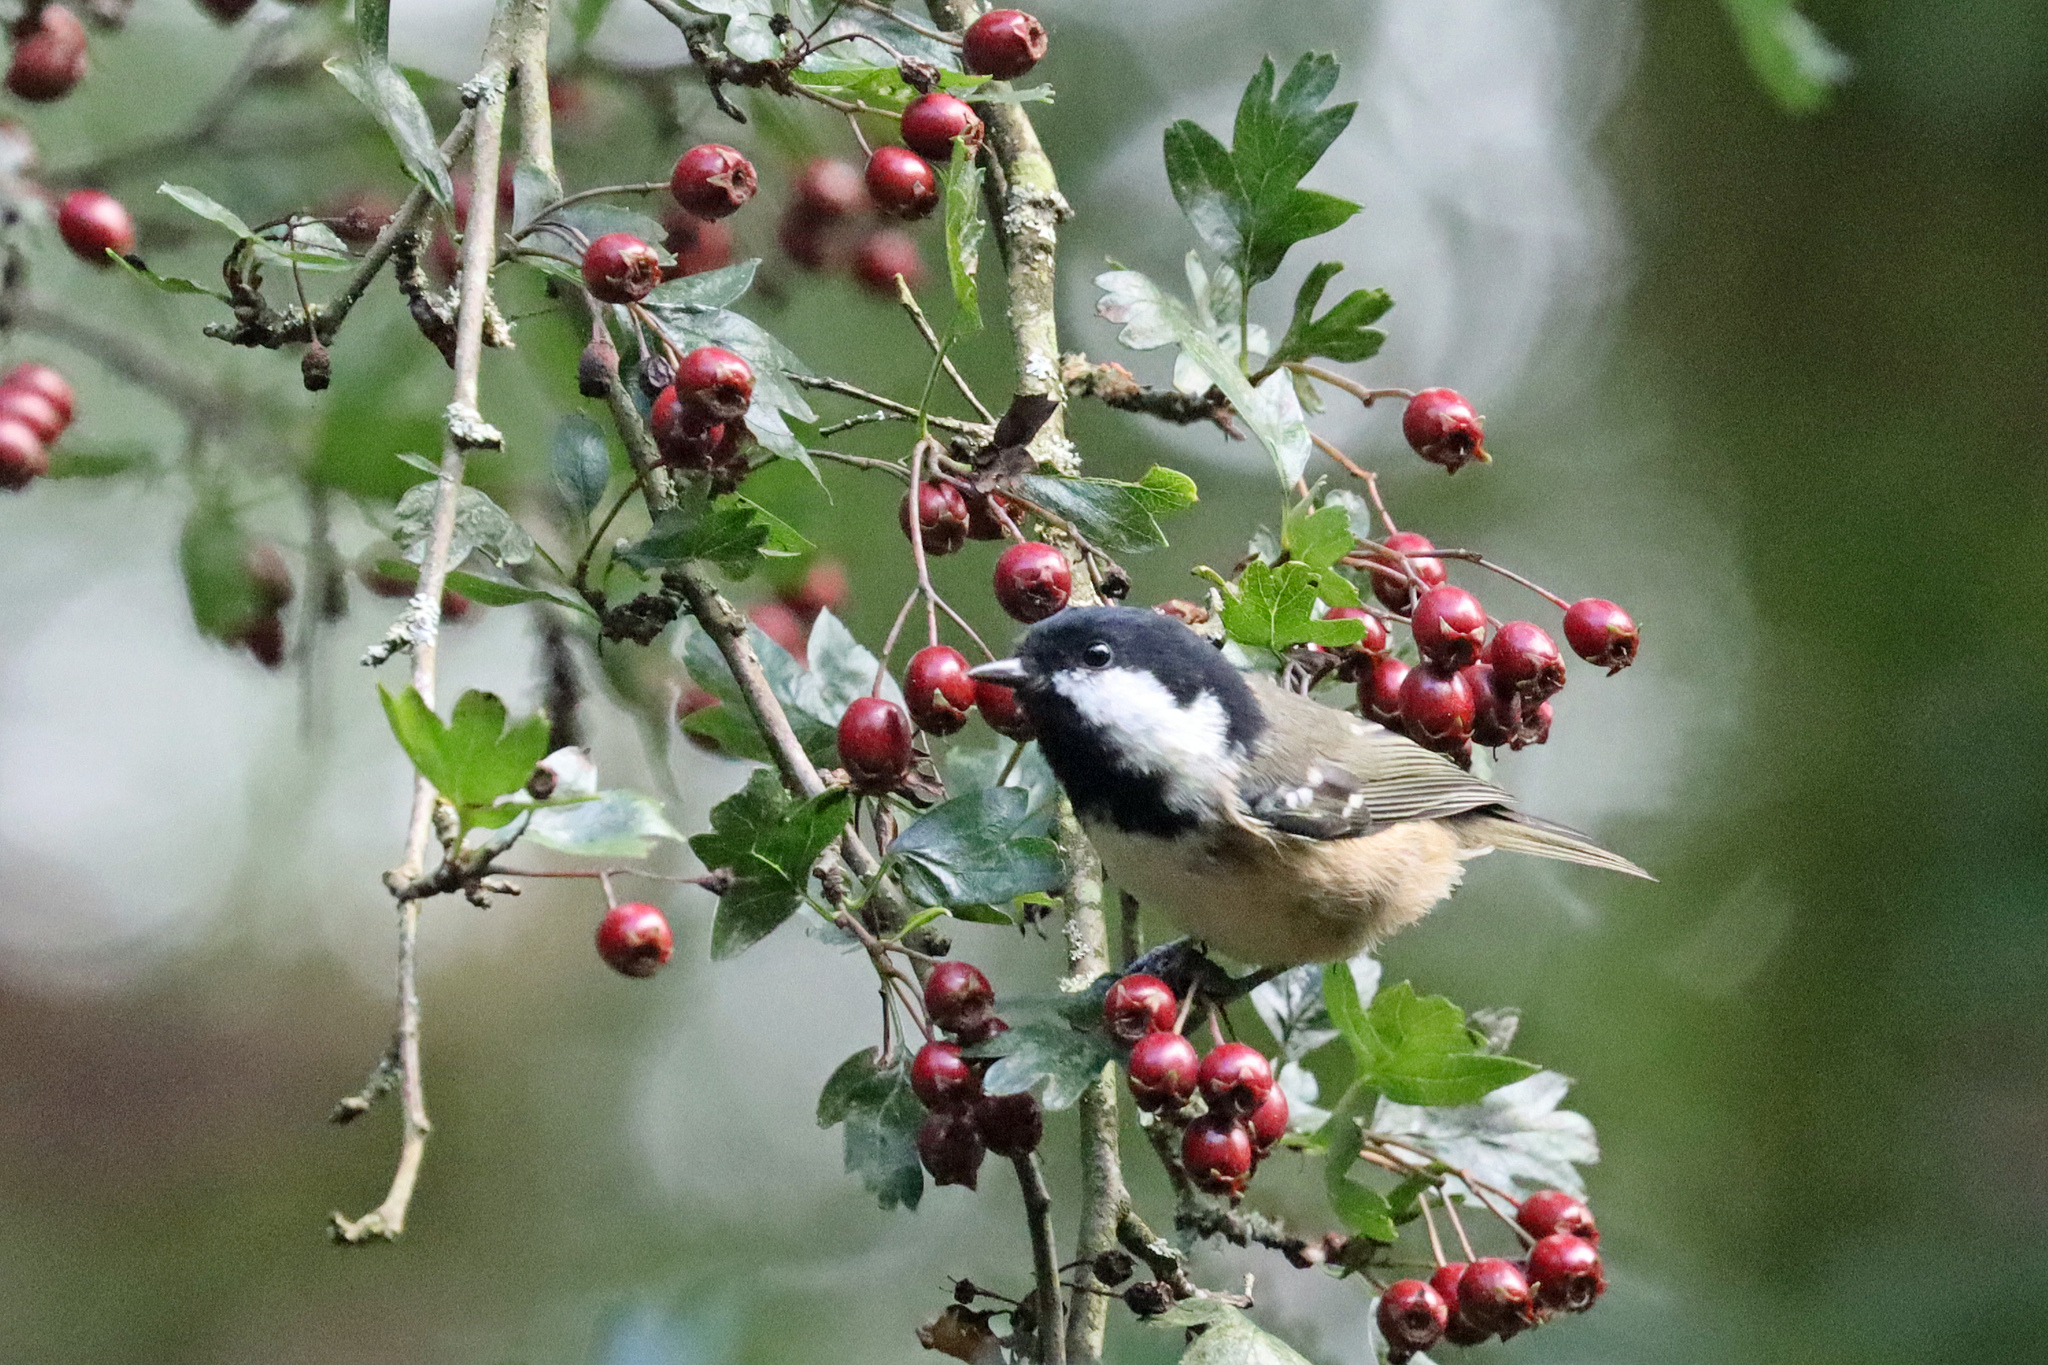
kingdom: Animalia
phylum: Chordata
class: Aves
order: Passeriformes
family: Paridae
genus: Periparus
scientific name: Periparus ater
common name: Coal tit
